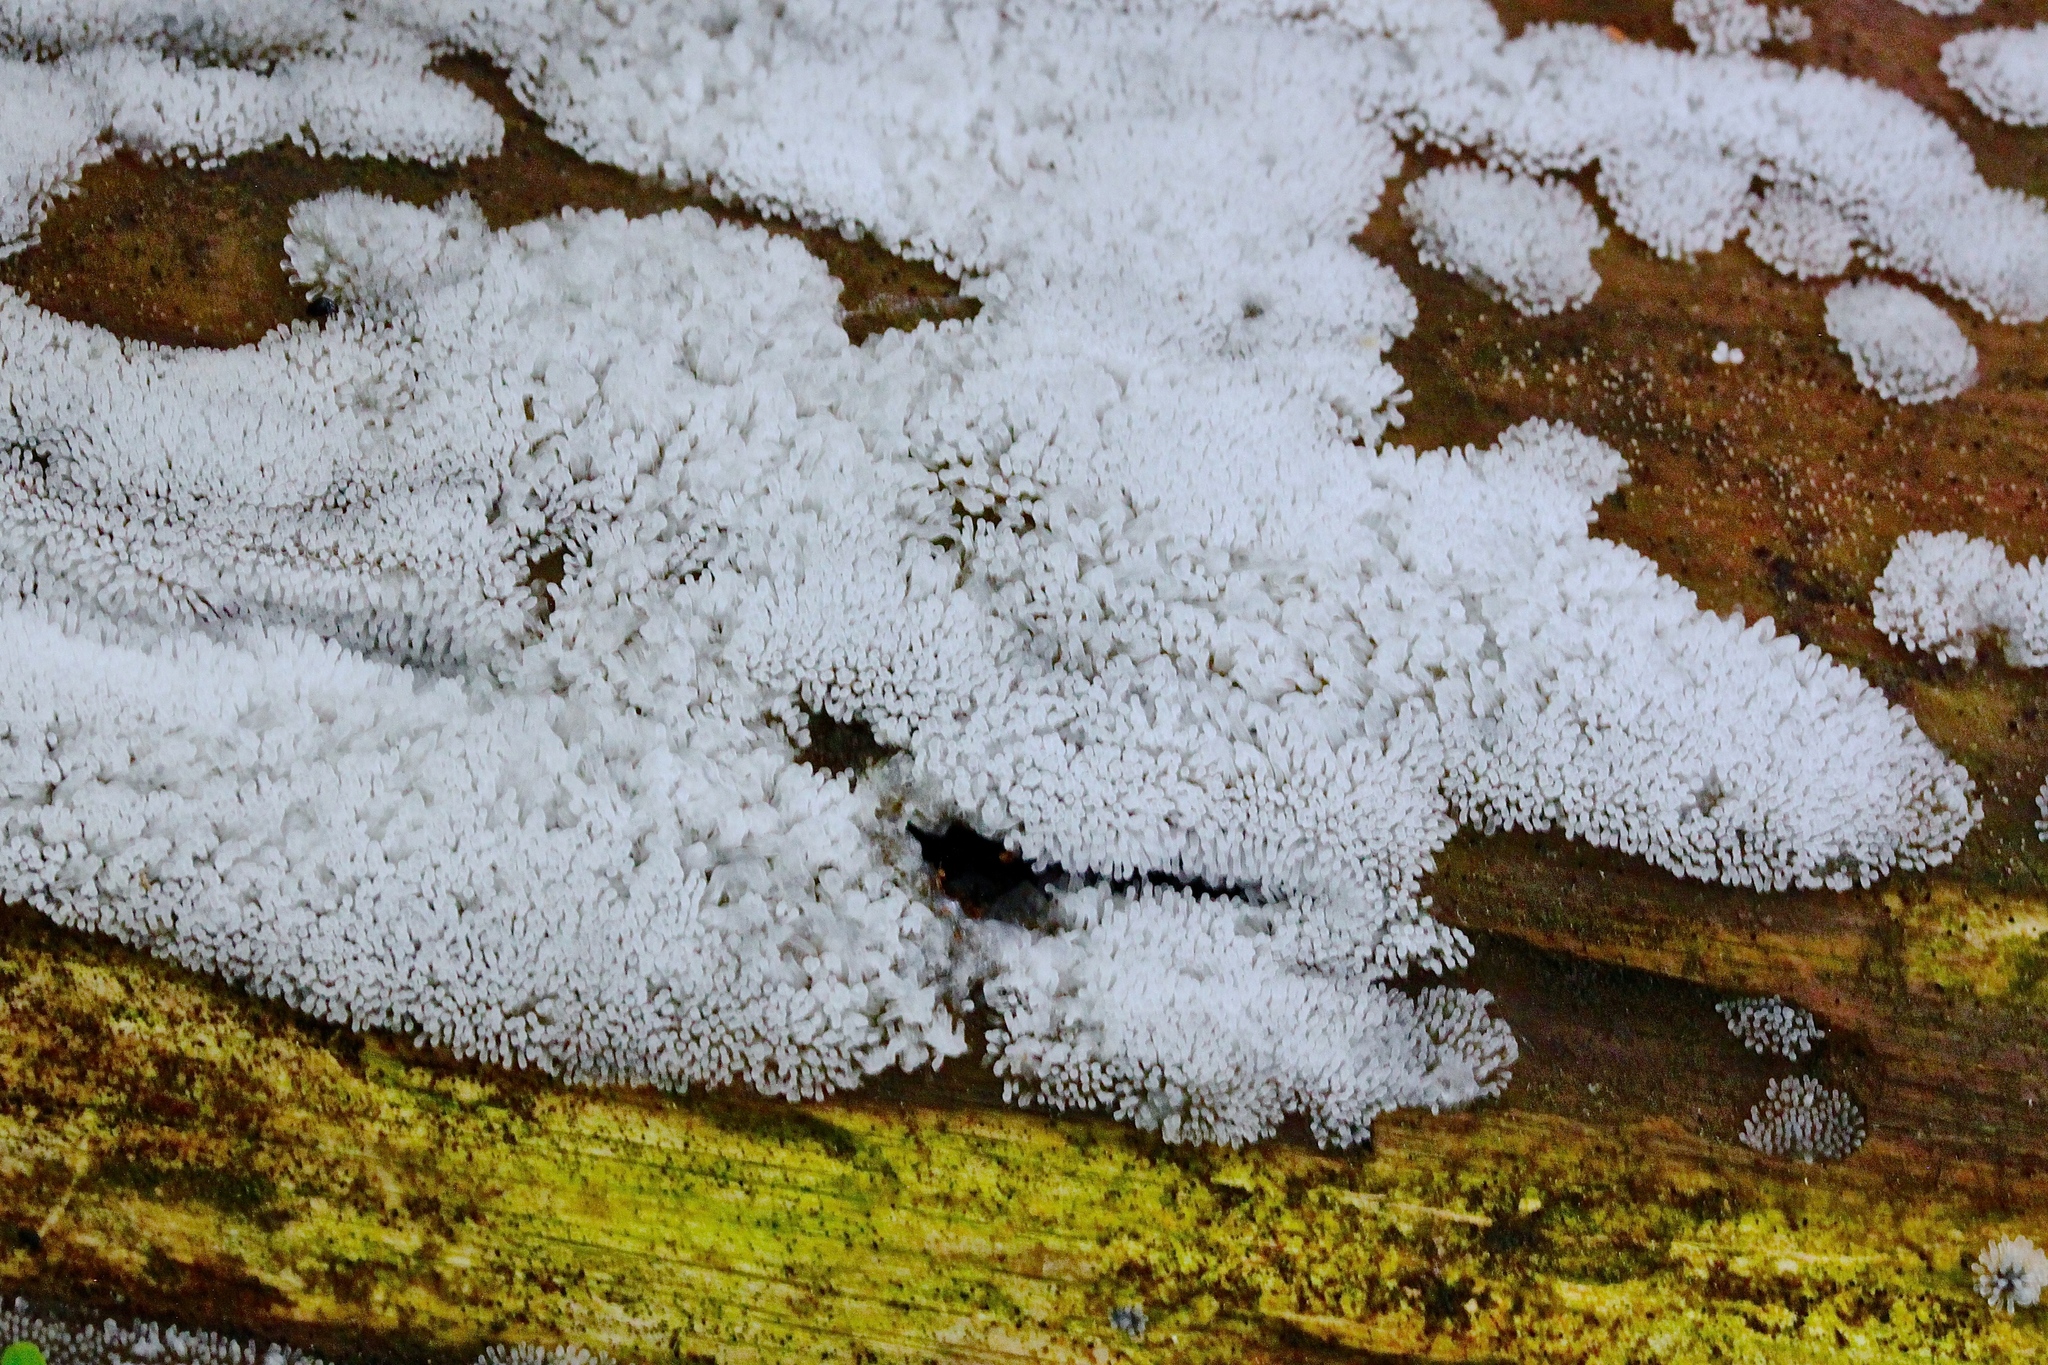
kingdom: Protozoa
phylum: Mycetozoa
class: Protosteliomycetes
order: Ceratiomyxales
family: Ceratiomyxaceae
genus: Ceratiomyxa
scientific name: Ceratiomyxa fruticulosa
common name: Honeycomb coral slime mold
